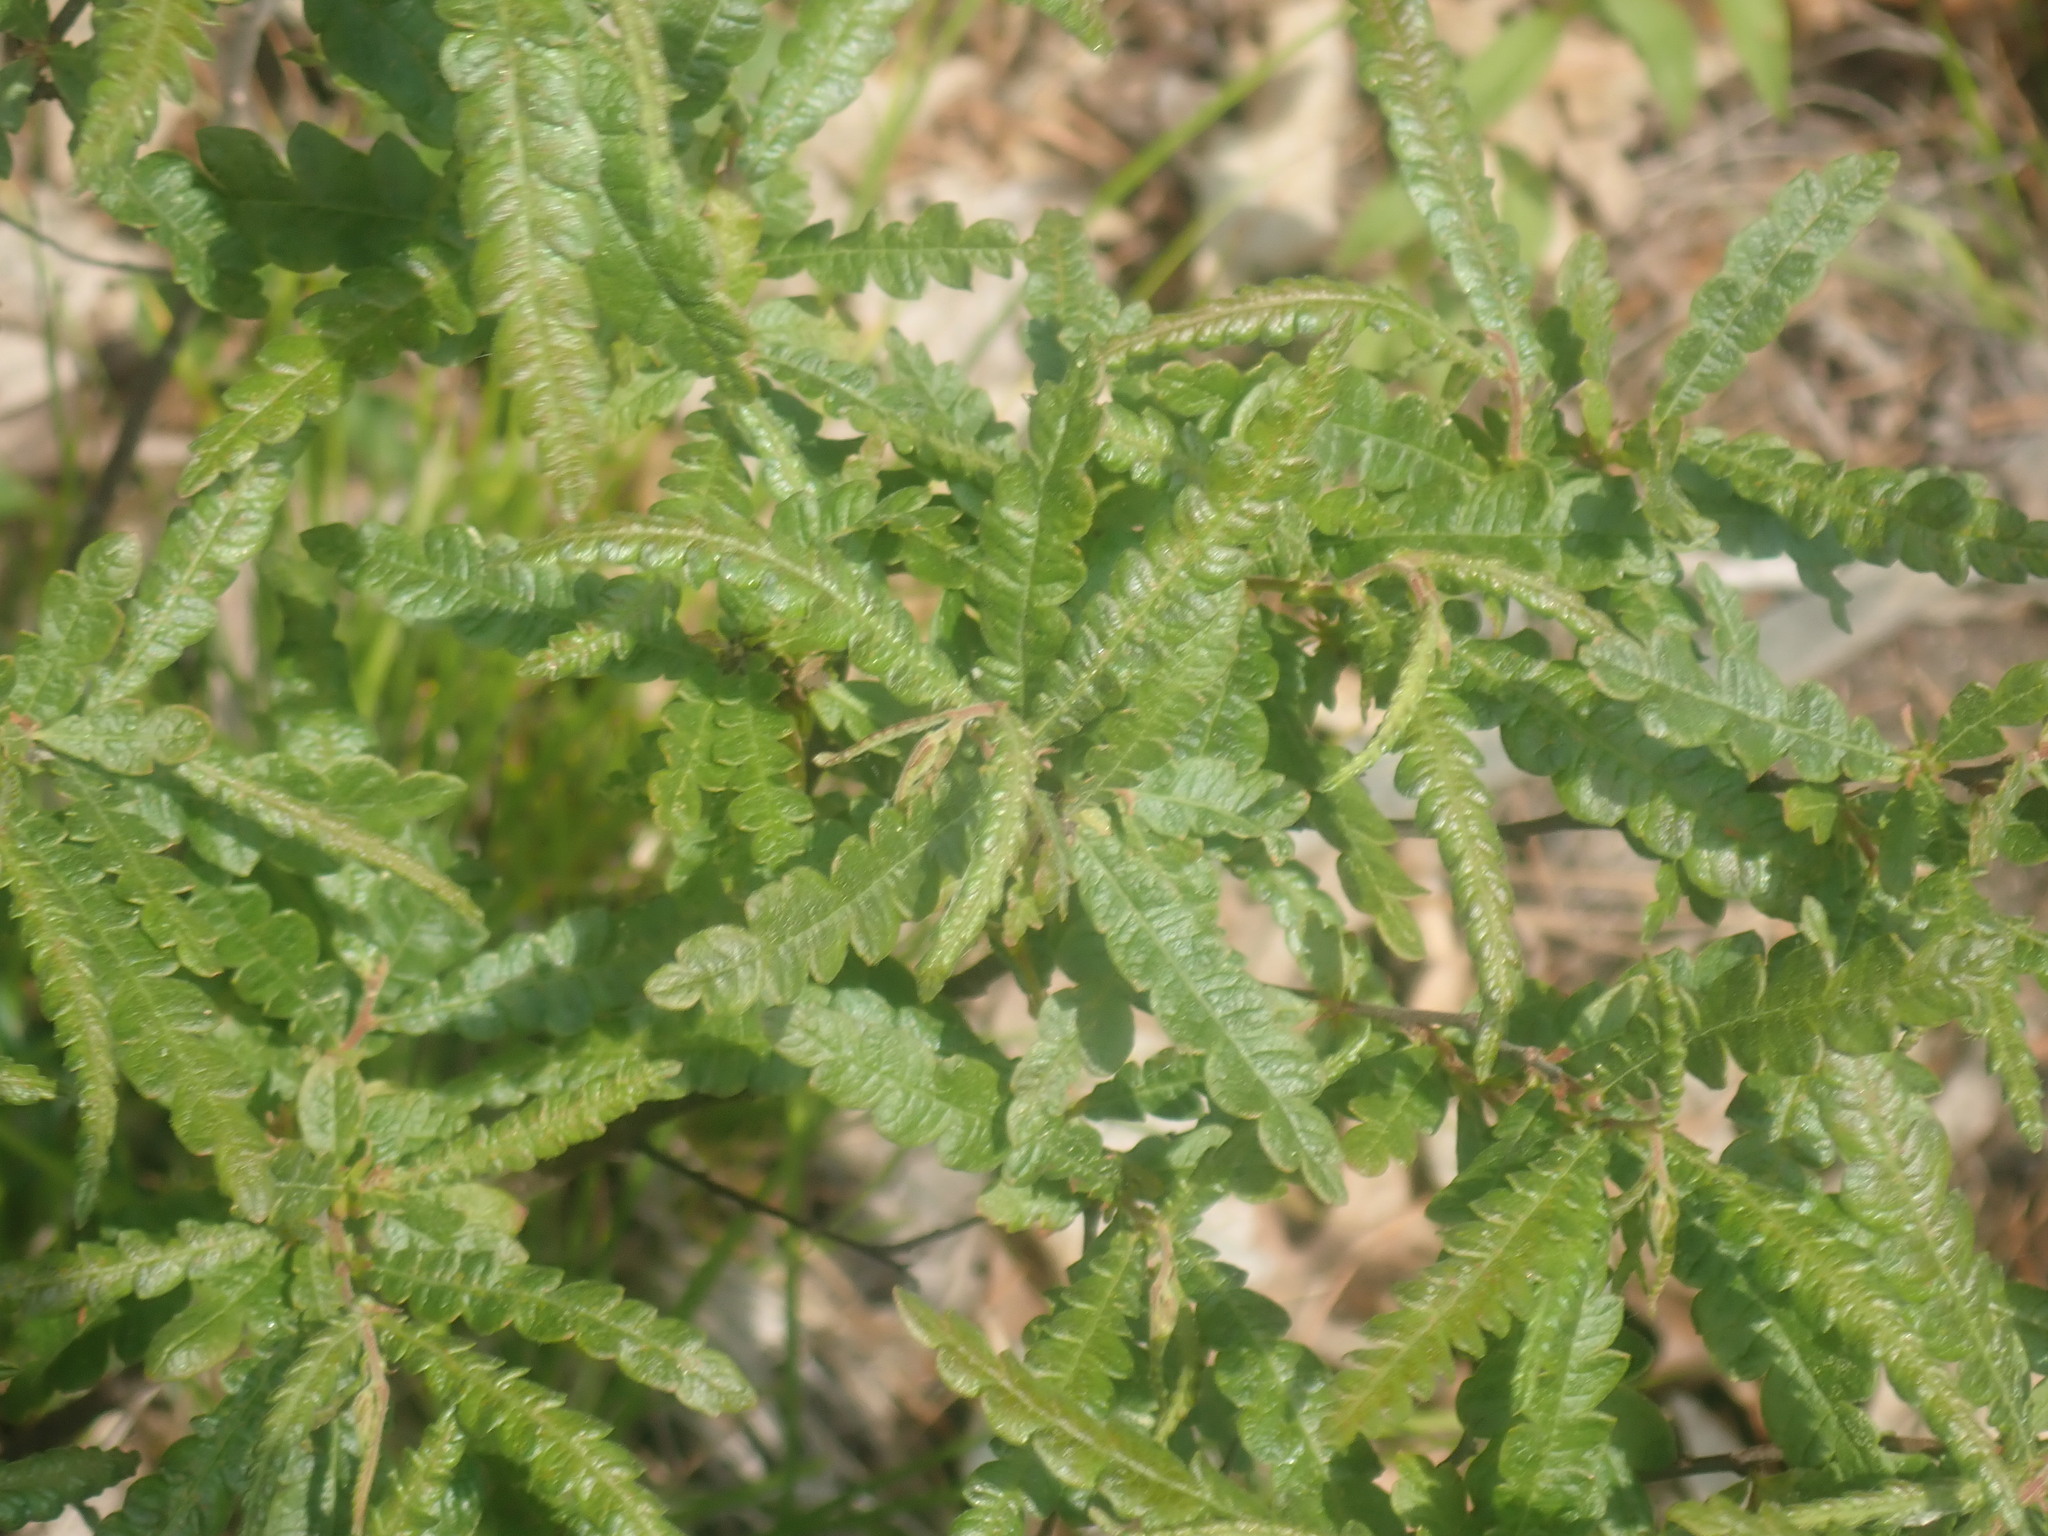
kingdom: Plantae
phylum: Tracheophyta
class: Magnoliopsida
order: Fagales
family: Myricaceae
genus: Comptonia
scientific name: Comptonia peregrina
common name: Sweet-fern
